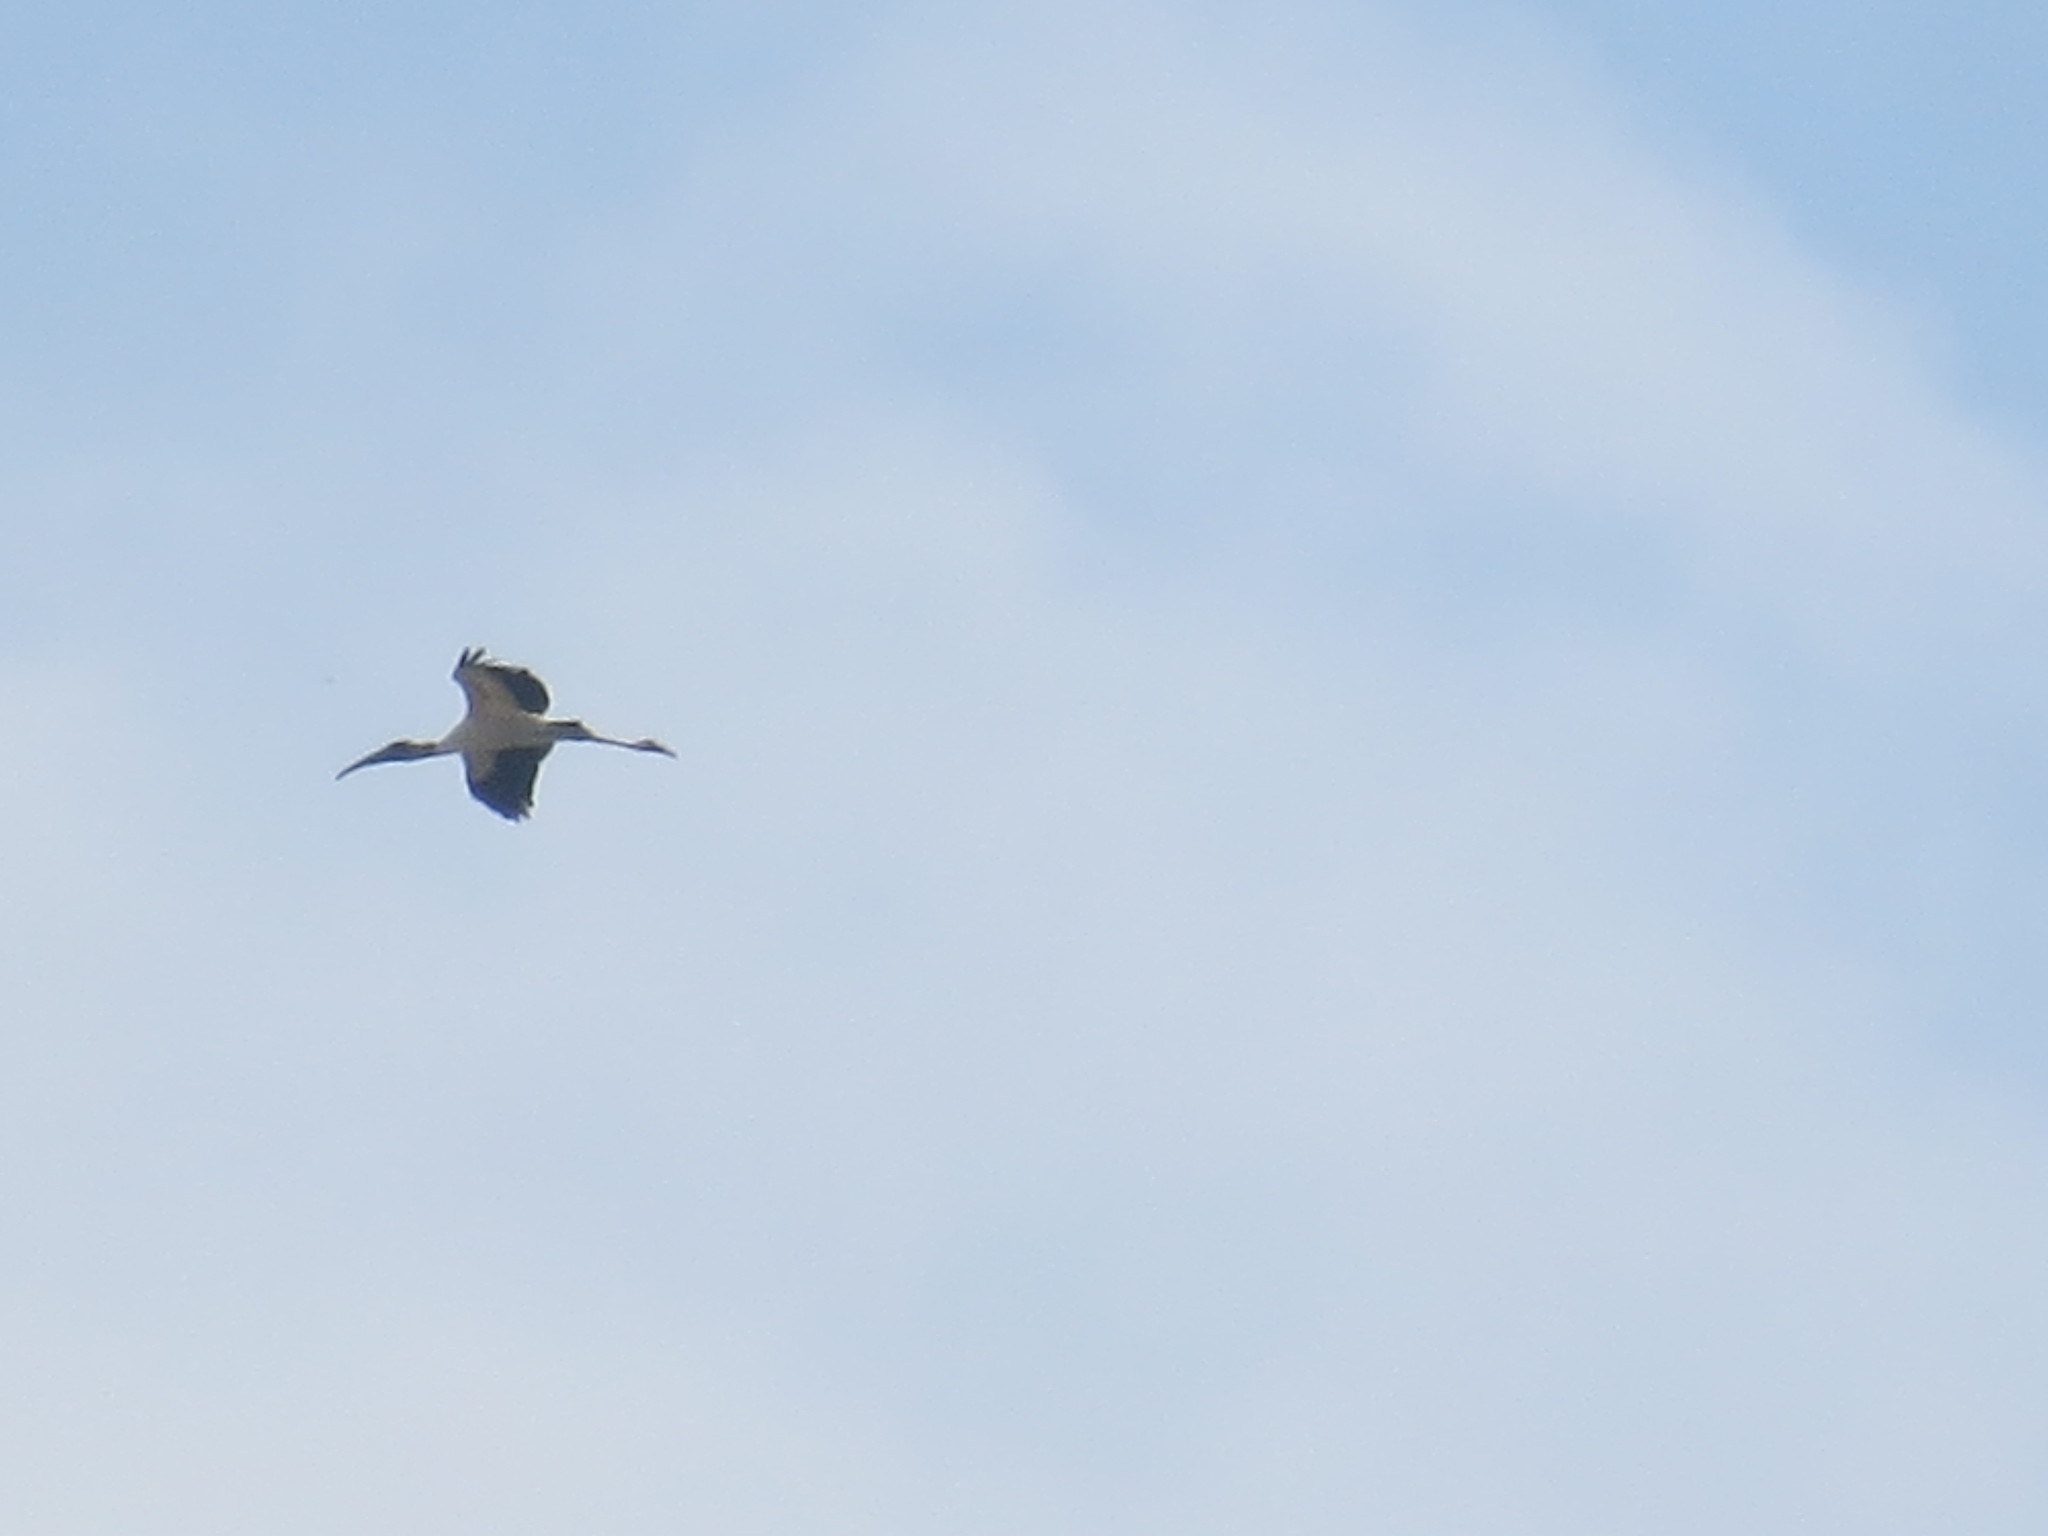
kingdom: Animalia
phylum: Chordata
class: Aves
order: Ciconiiformes
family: Ciconiidae
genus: Mycteria
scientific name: Mycteria americana
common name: Wood stork
